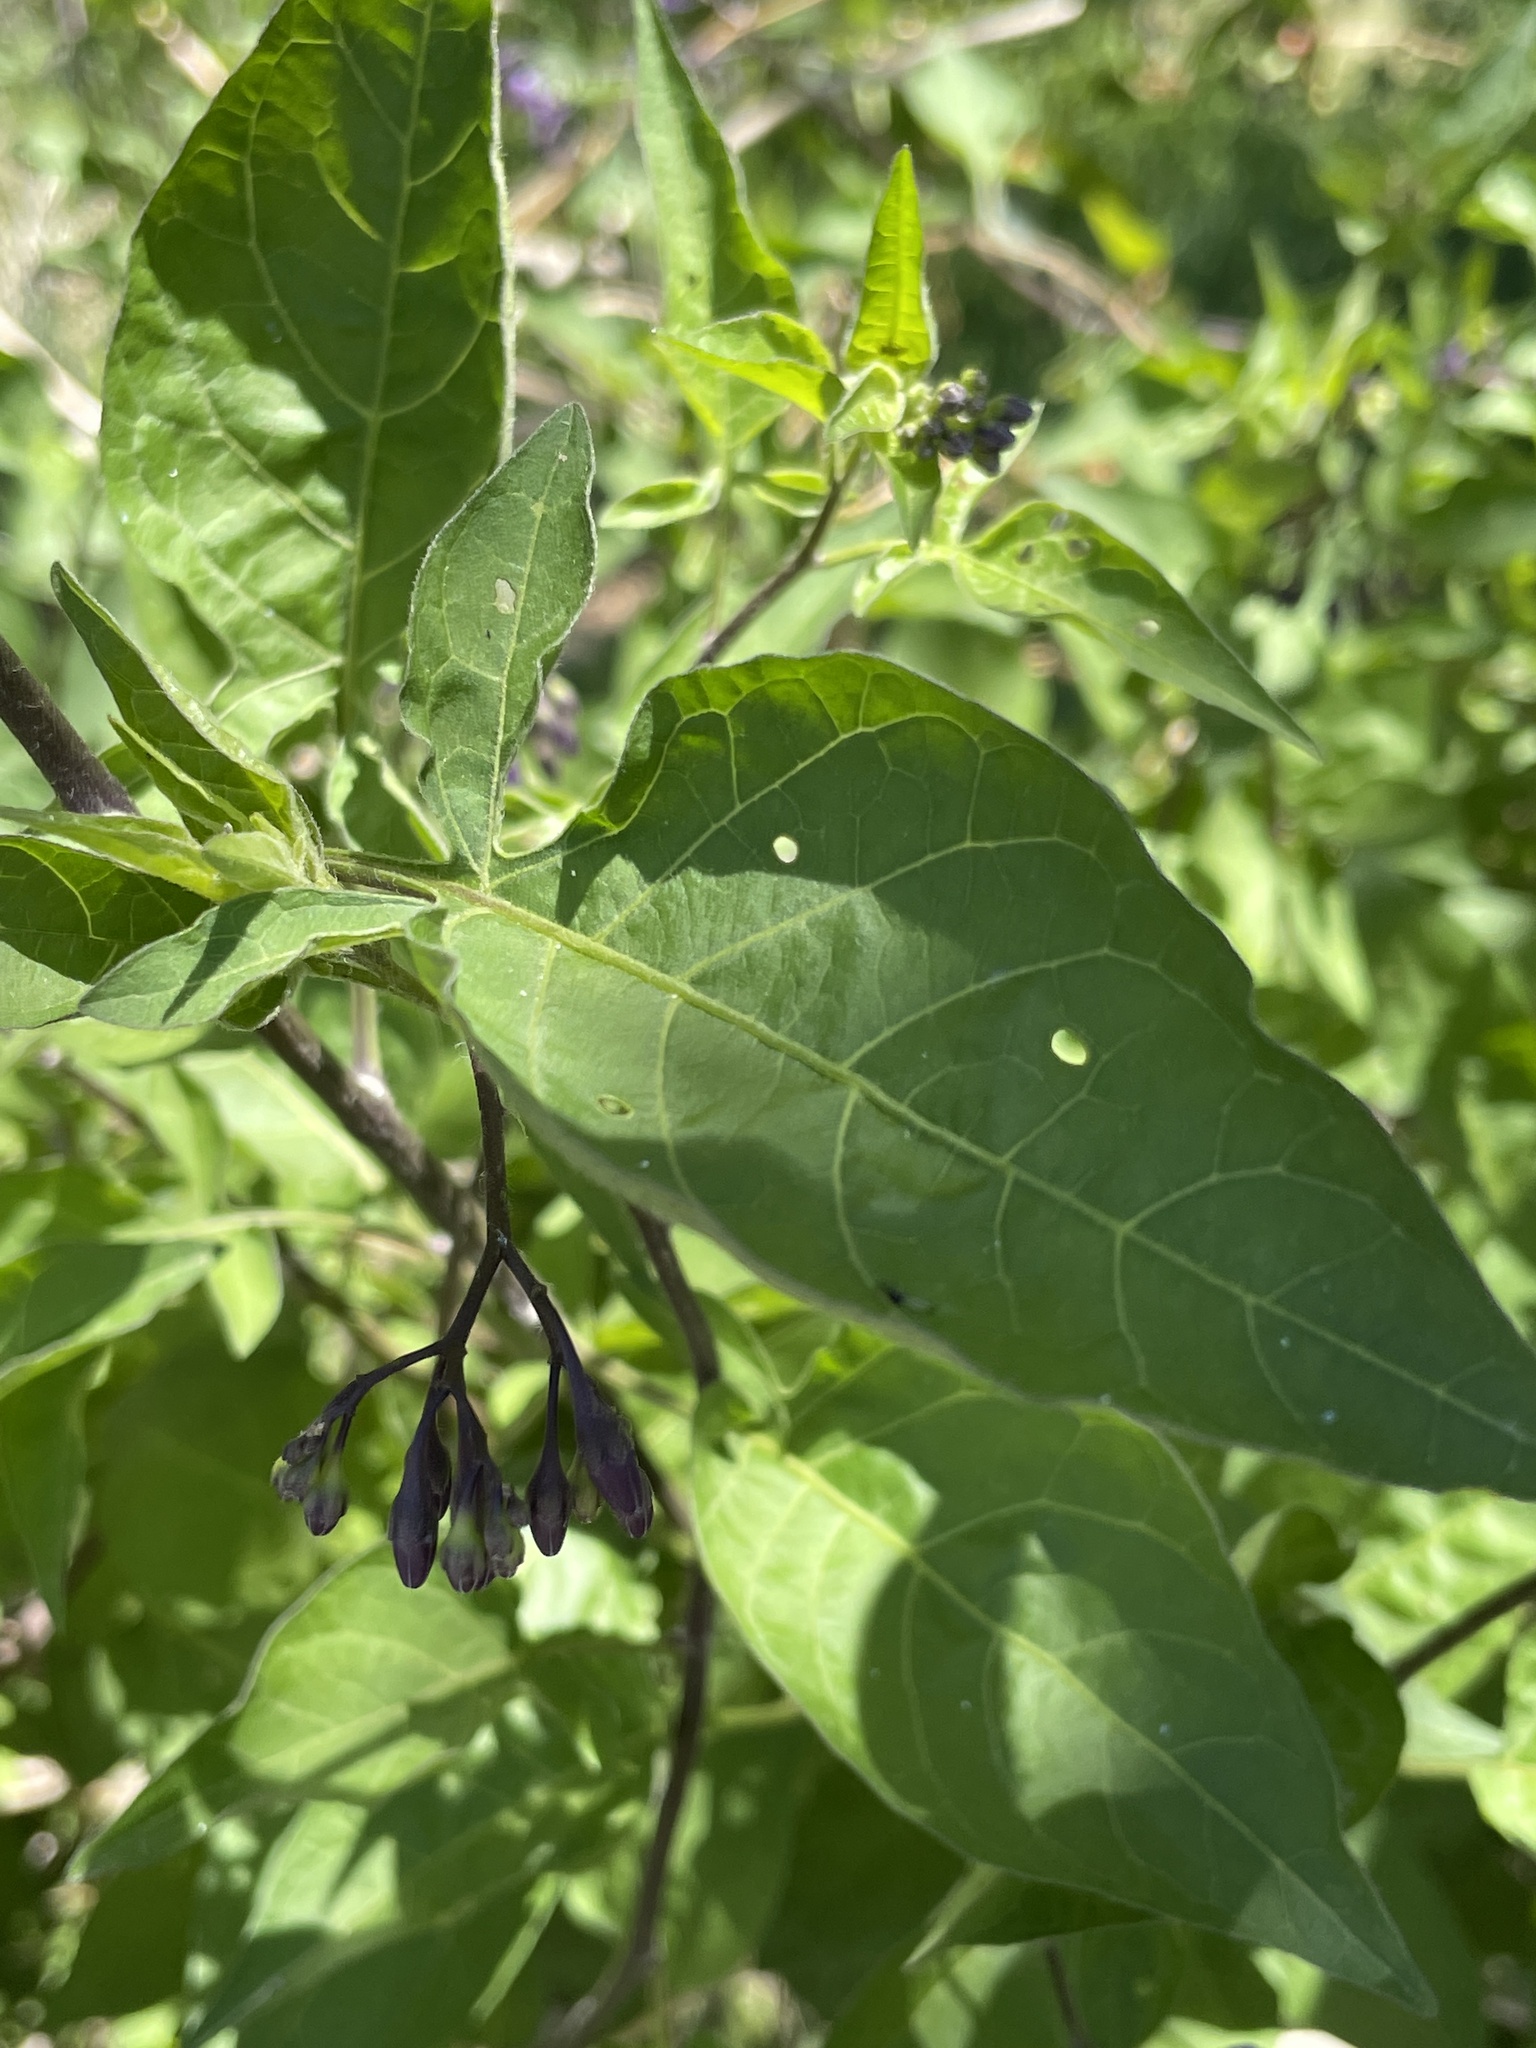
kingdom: Plantae
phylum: Tracheophyta
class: Magnoliopsida
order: Solanales
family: Solanaceae
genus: Solanum
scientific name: Solanum dulcamara
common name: Climbing nightshade
